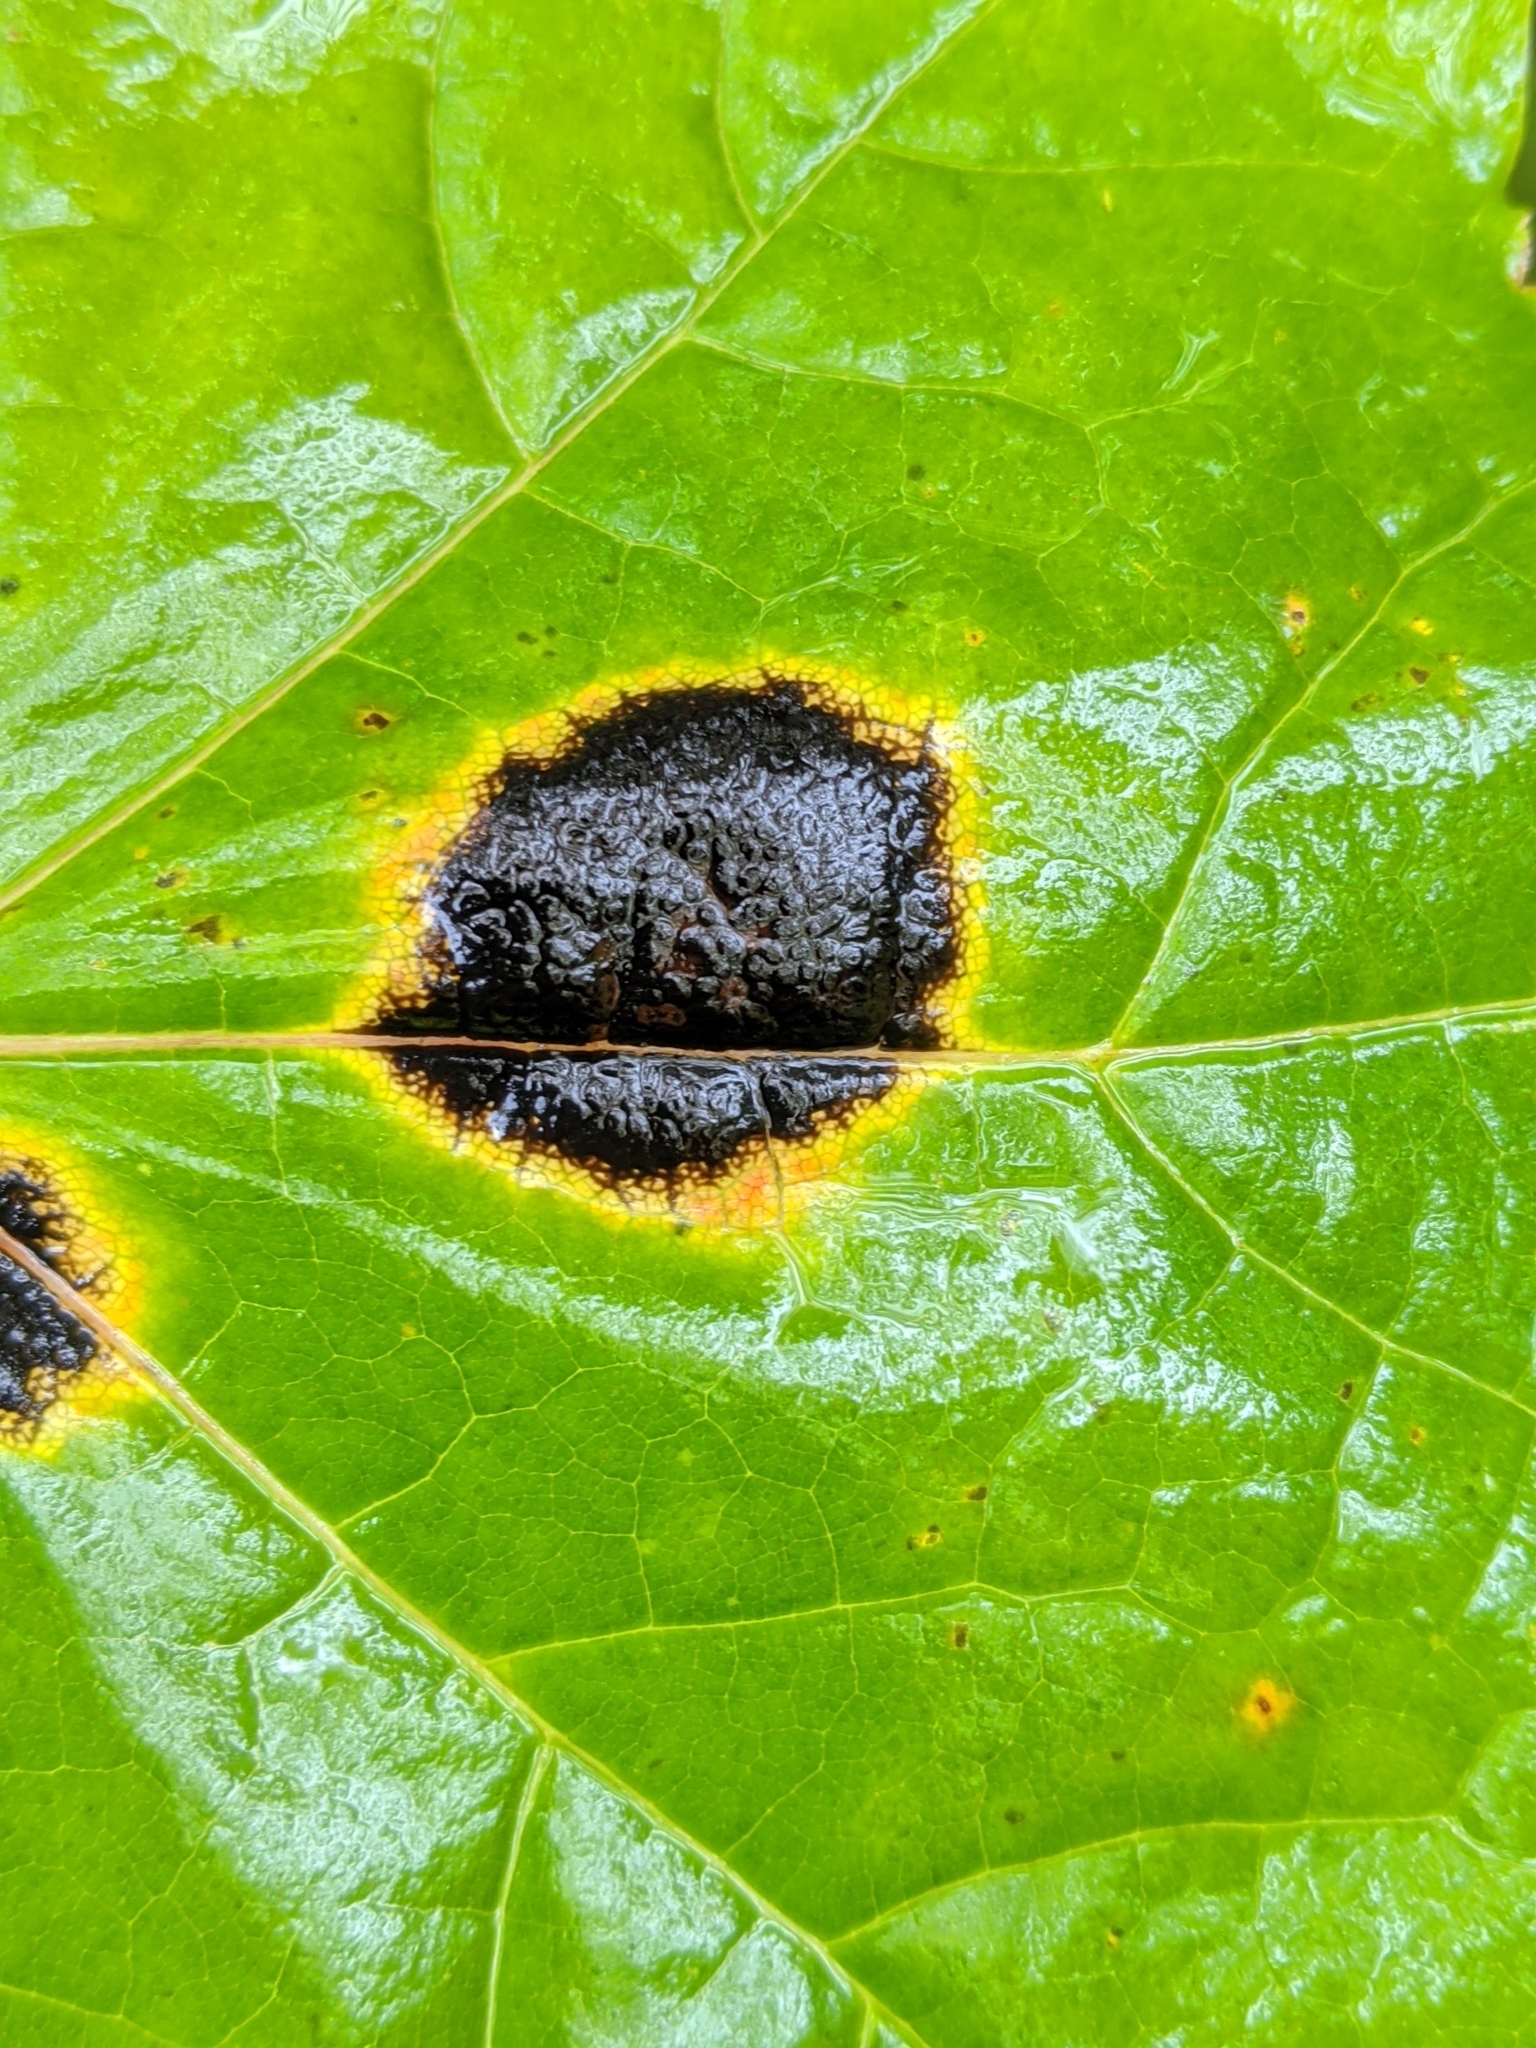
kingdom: Fungi
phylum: Ascomycota
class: Leotiomycetes
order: Rhytismatales
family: Rhytismataceae
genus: Rhytisma
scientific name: Rhytisma acerinum
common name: European tar spot
